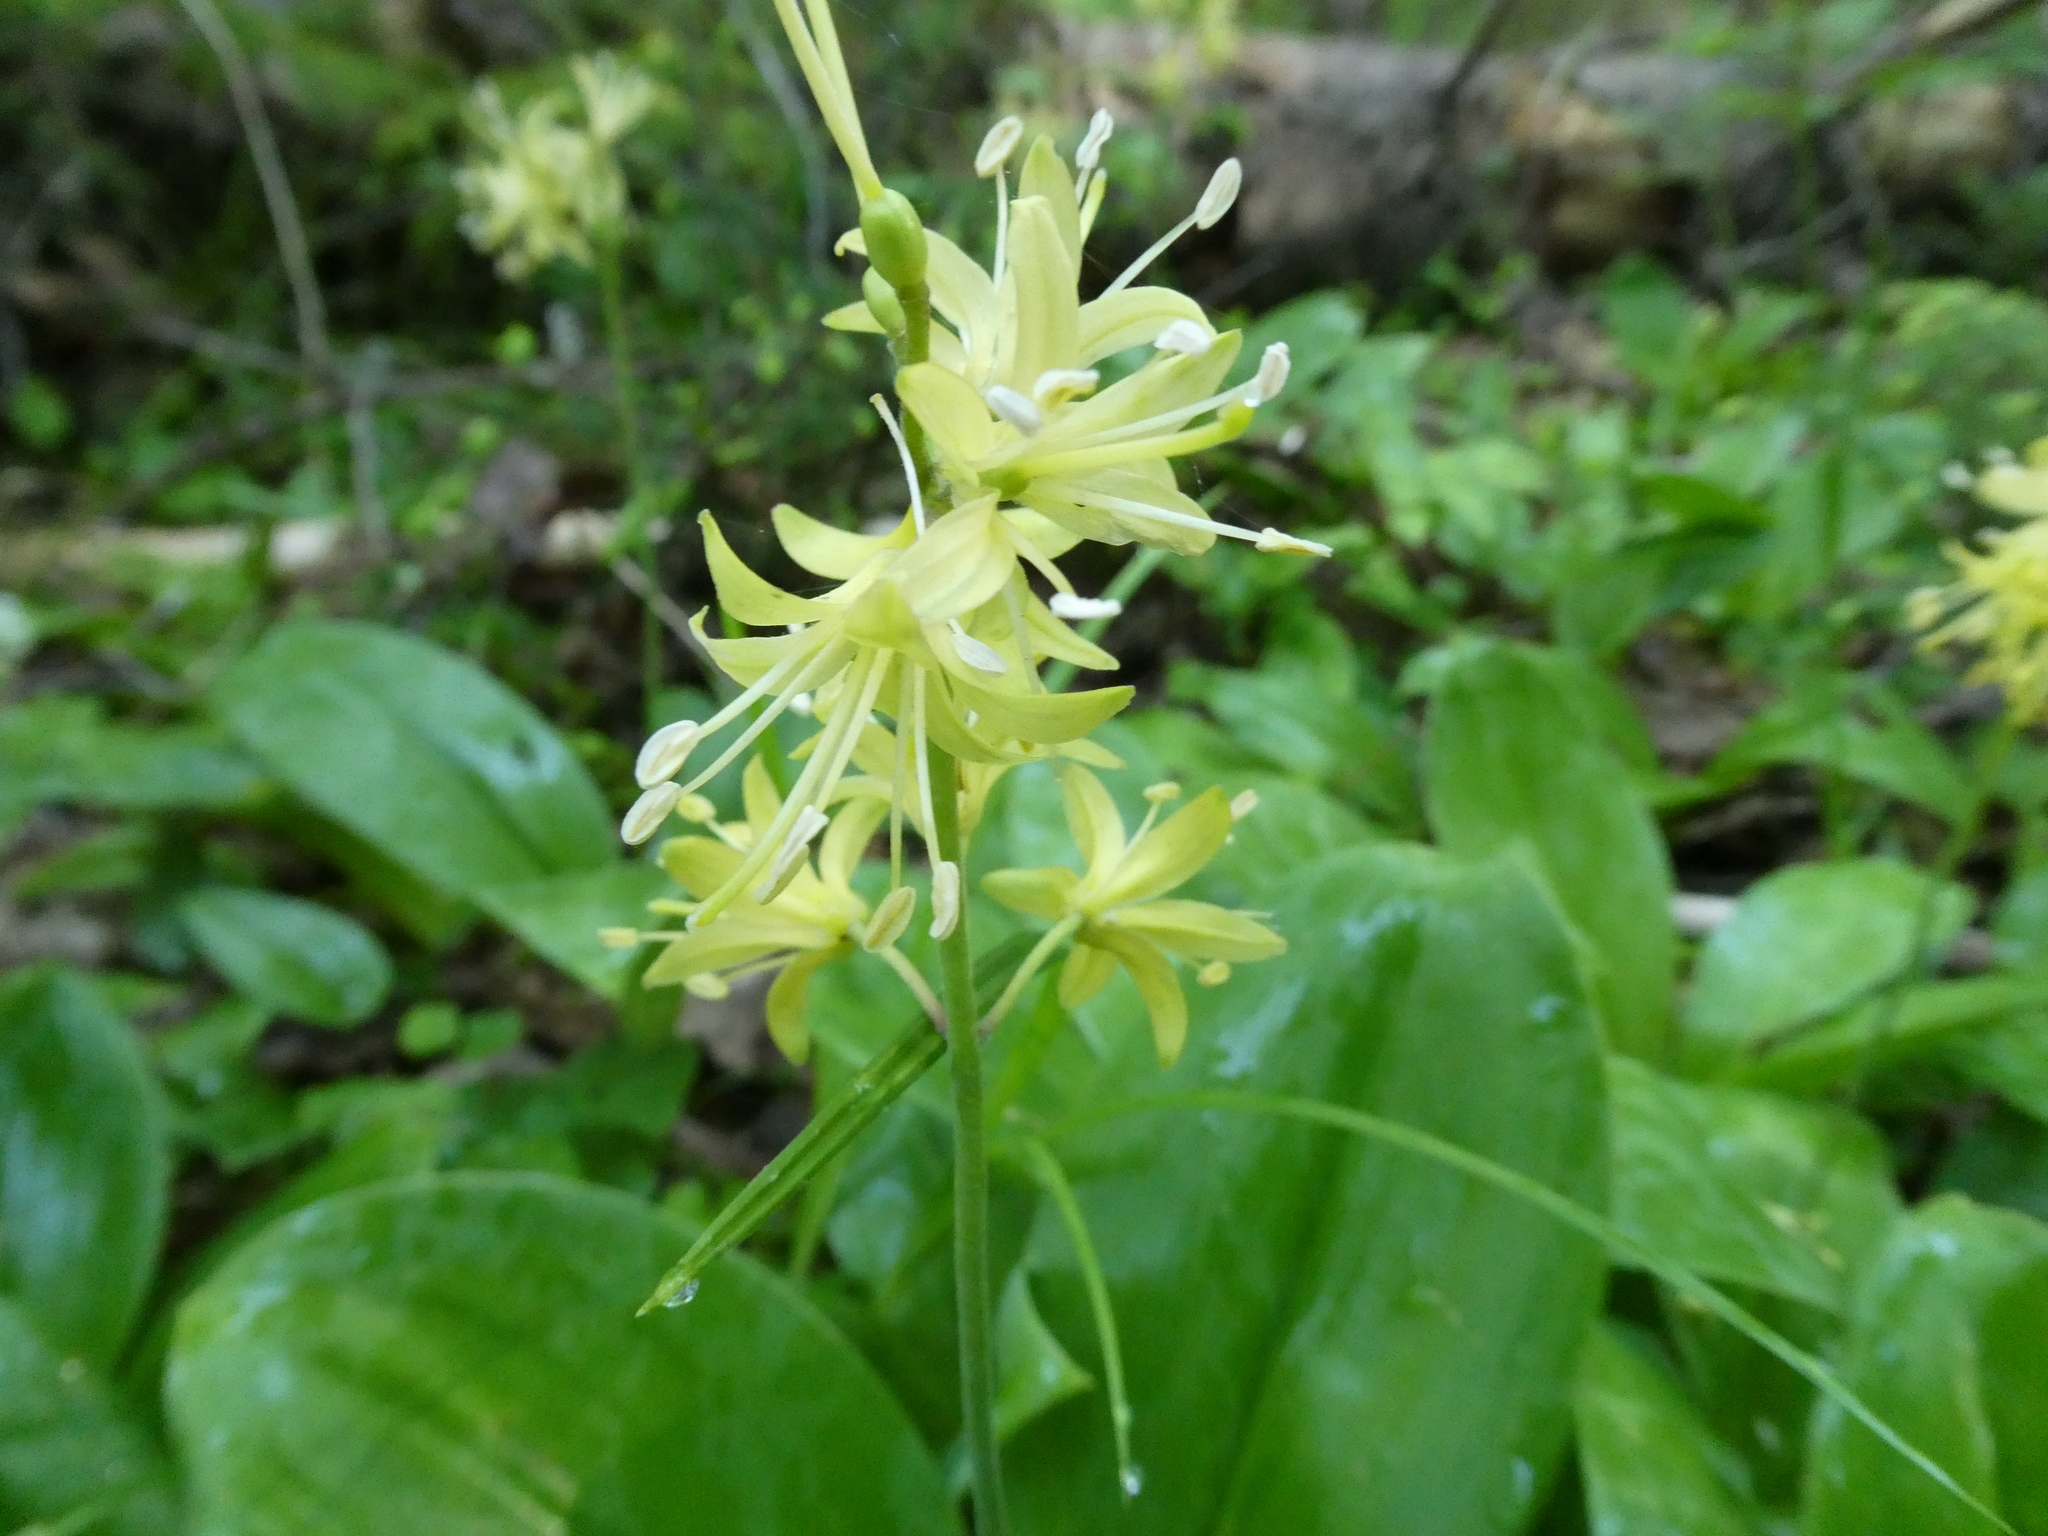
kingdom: Plantae
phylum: Tracheophyta
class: Liliopsida
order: Liliales
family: Liliaceae
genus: Clintonia
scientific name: Clintonia borealis
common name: Yellow clintonia
